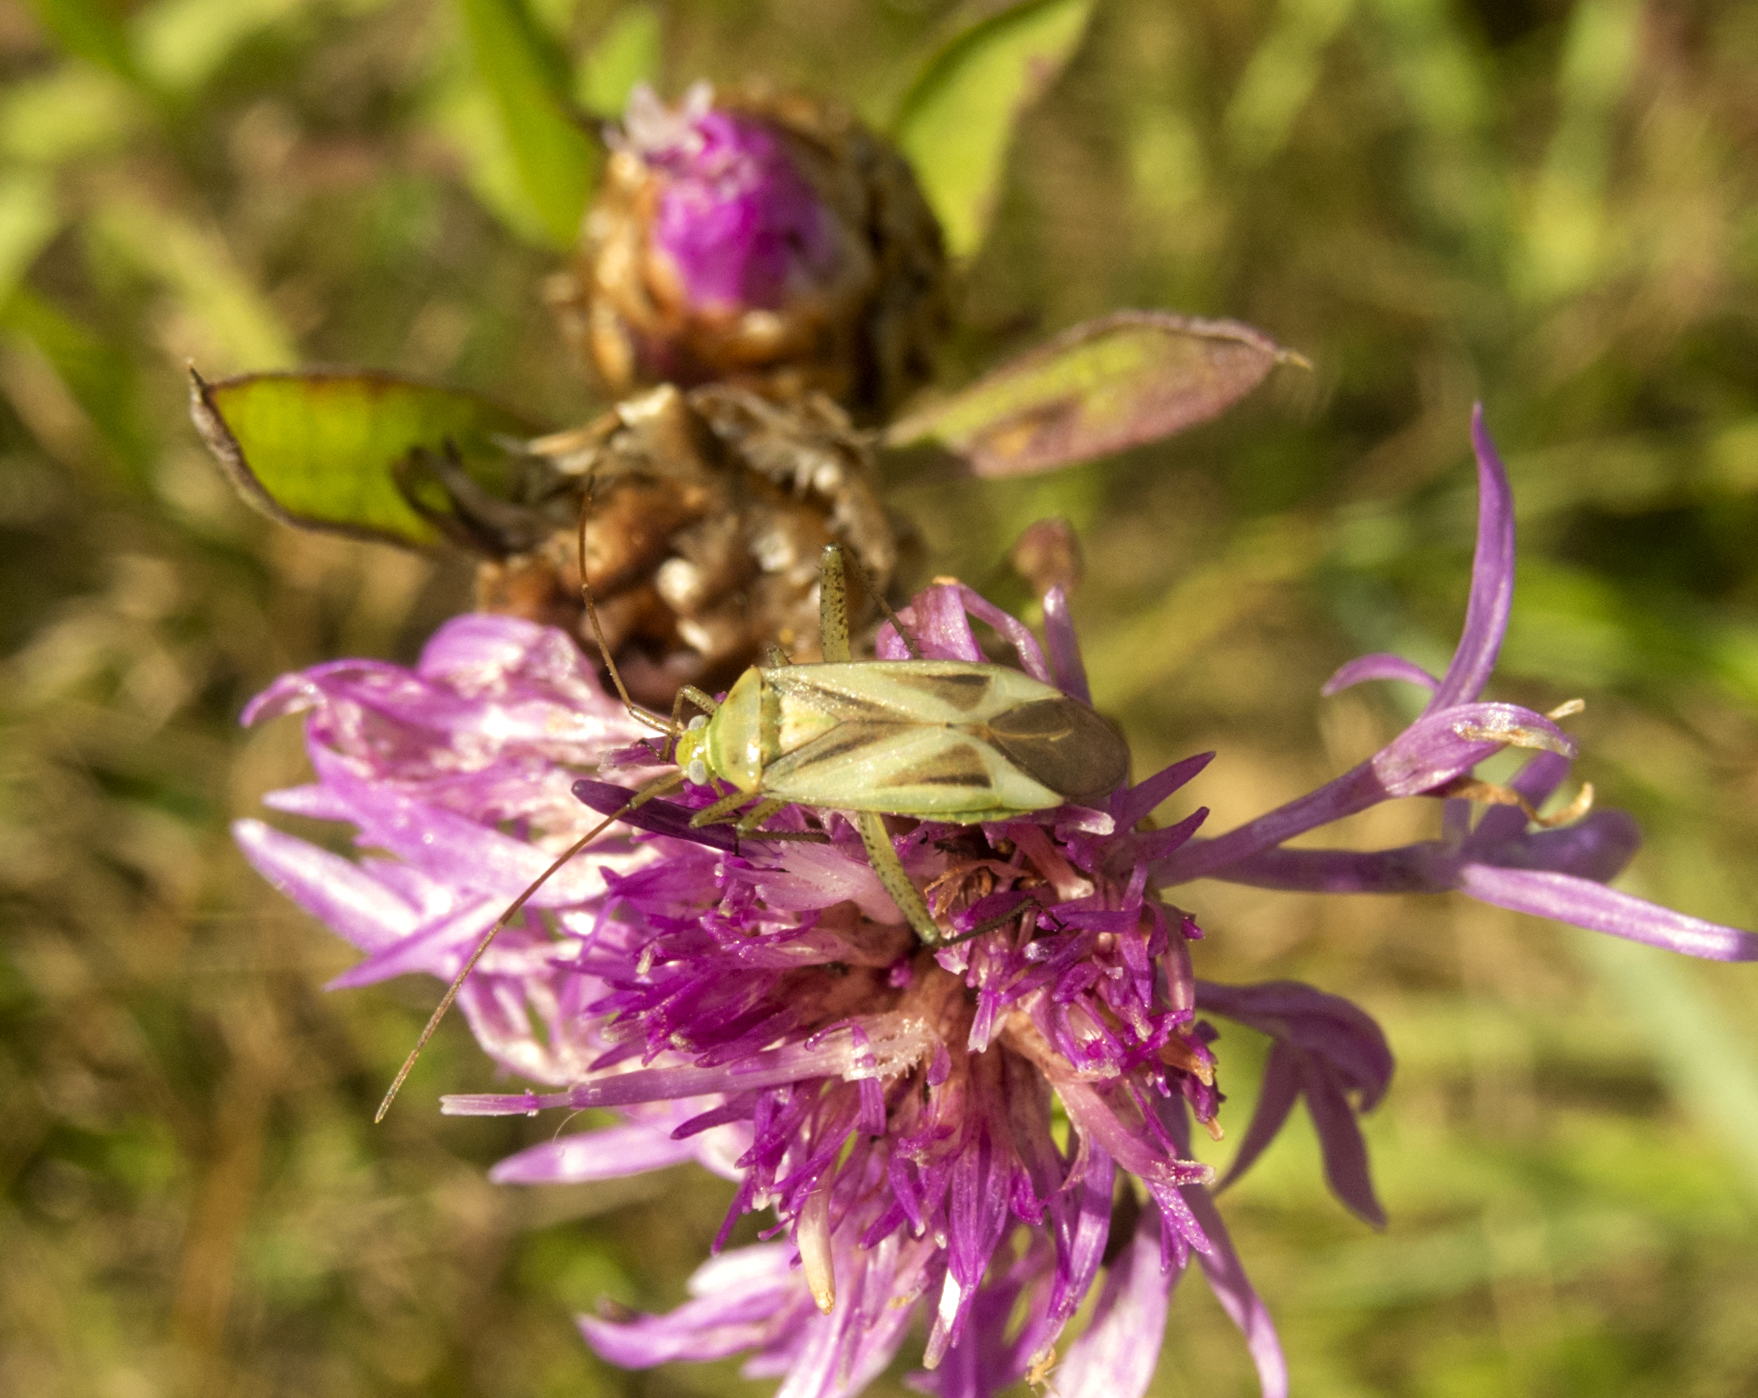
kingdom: Animalia
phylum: Arthropoda
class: Insecta
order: Hemiptera
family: Miridae
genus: Adelphocoris
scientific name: Adelphocoris lineolatus
